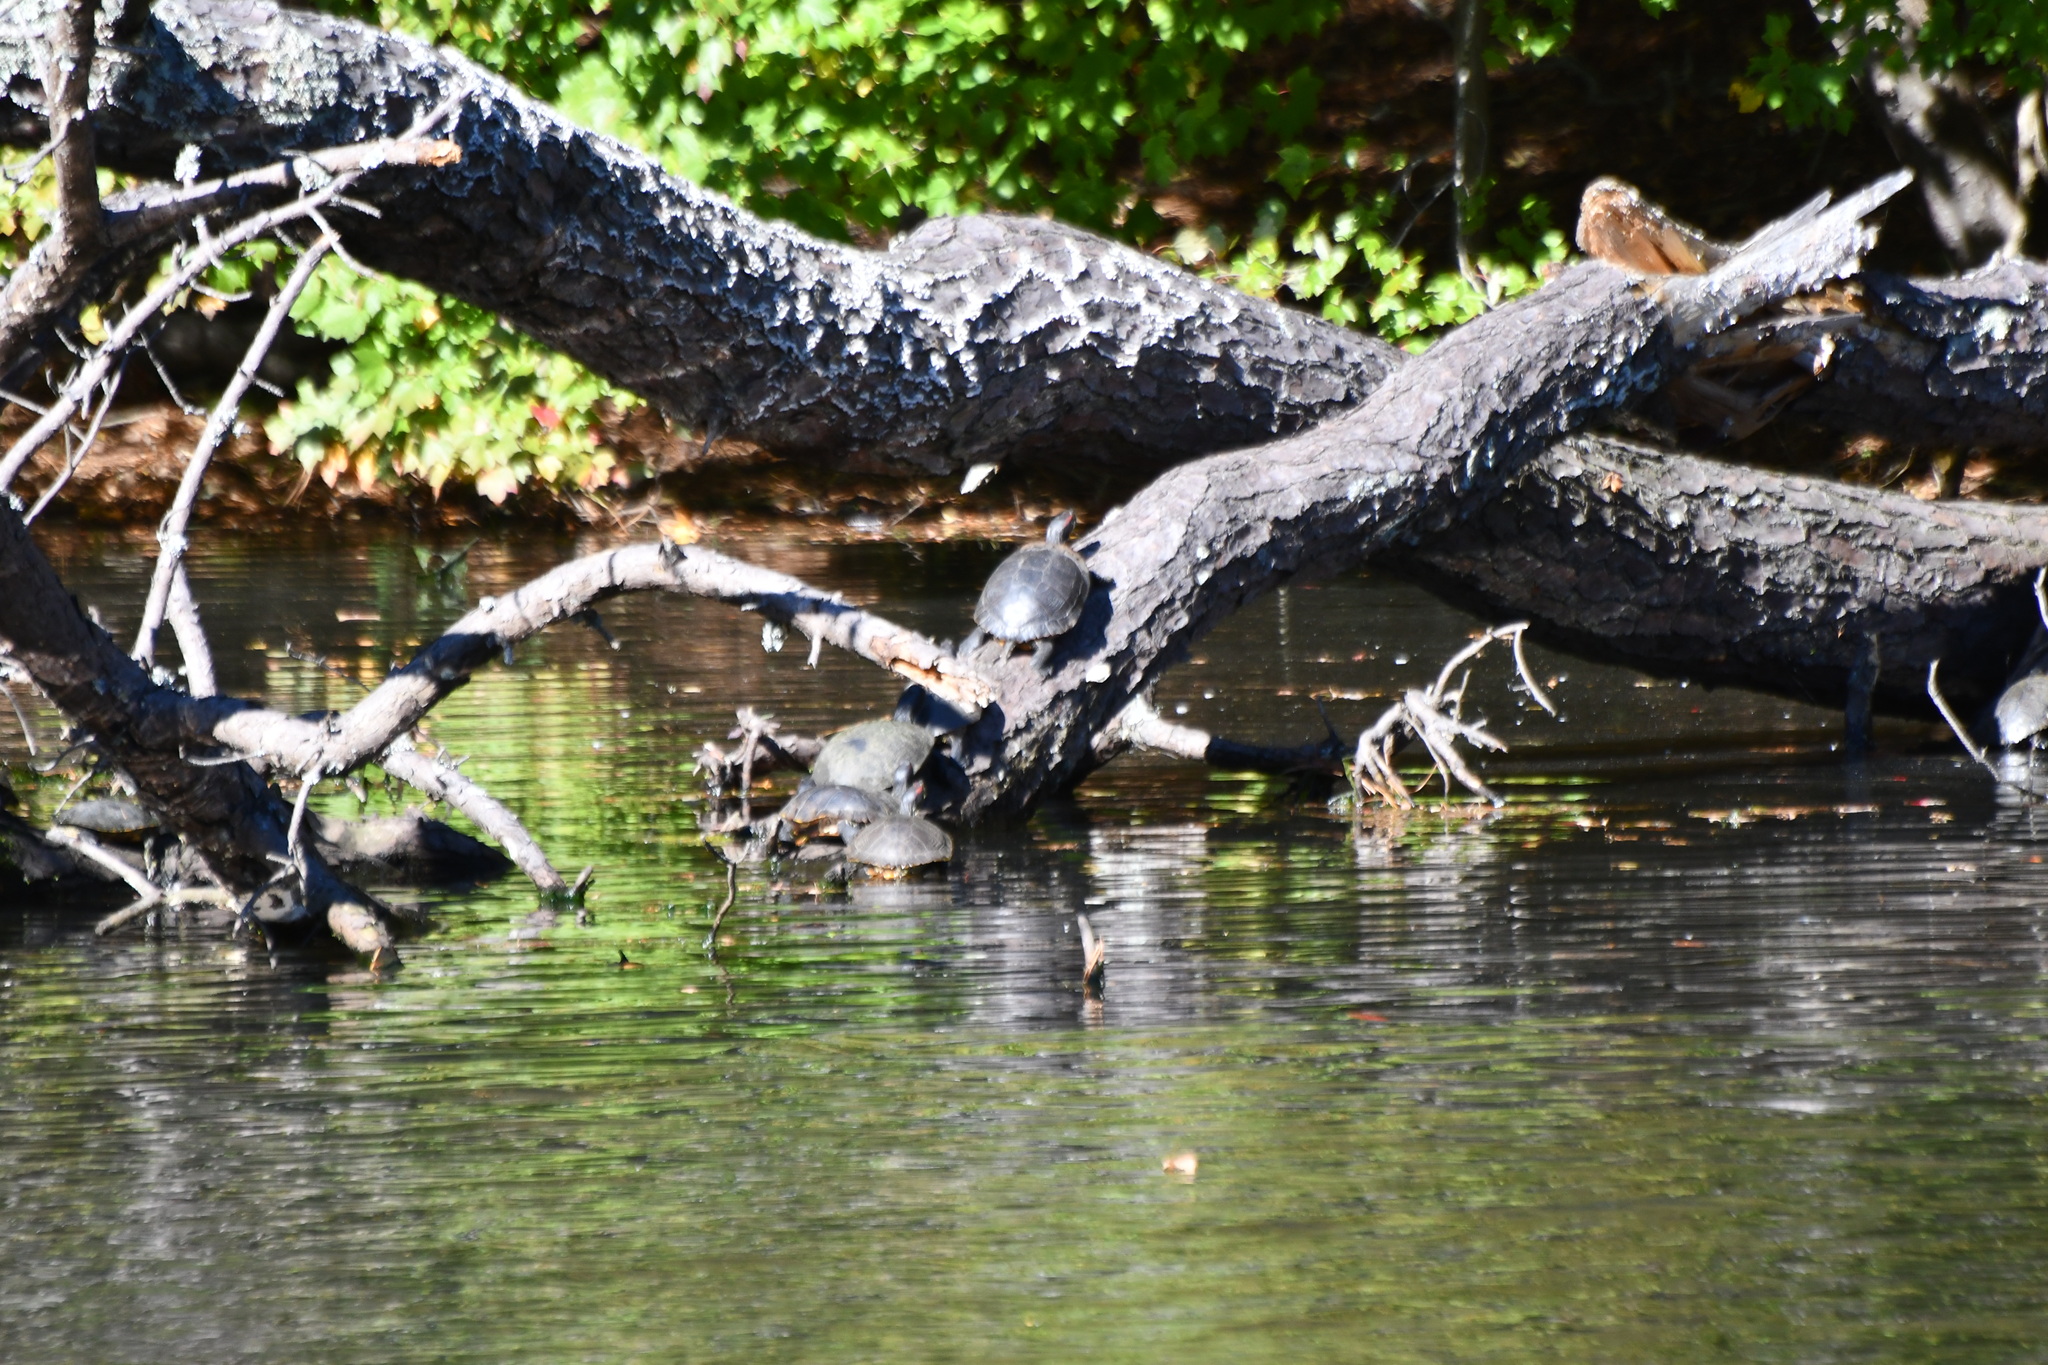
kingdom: Animalia
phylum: Chordata
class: Testudines
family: Emydidae
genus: Trachemys
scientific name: Trachemys scripta
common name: Slider
